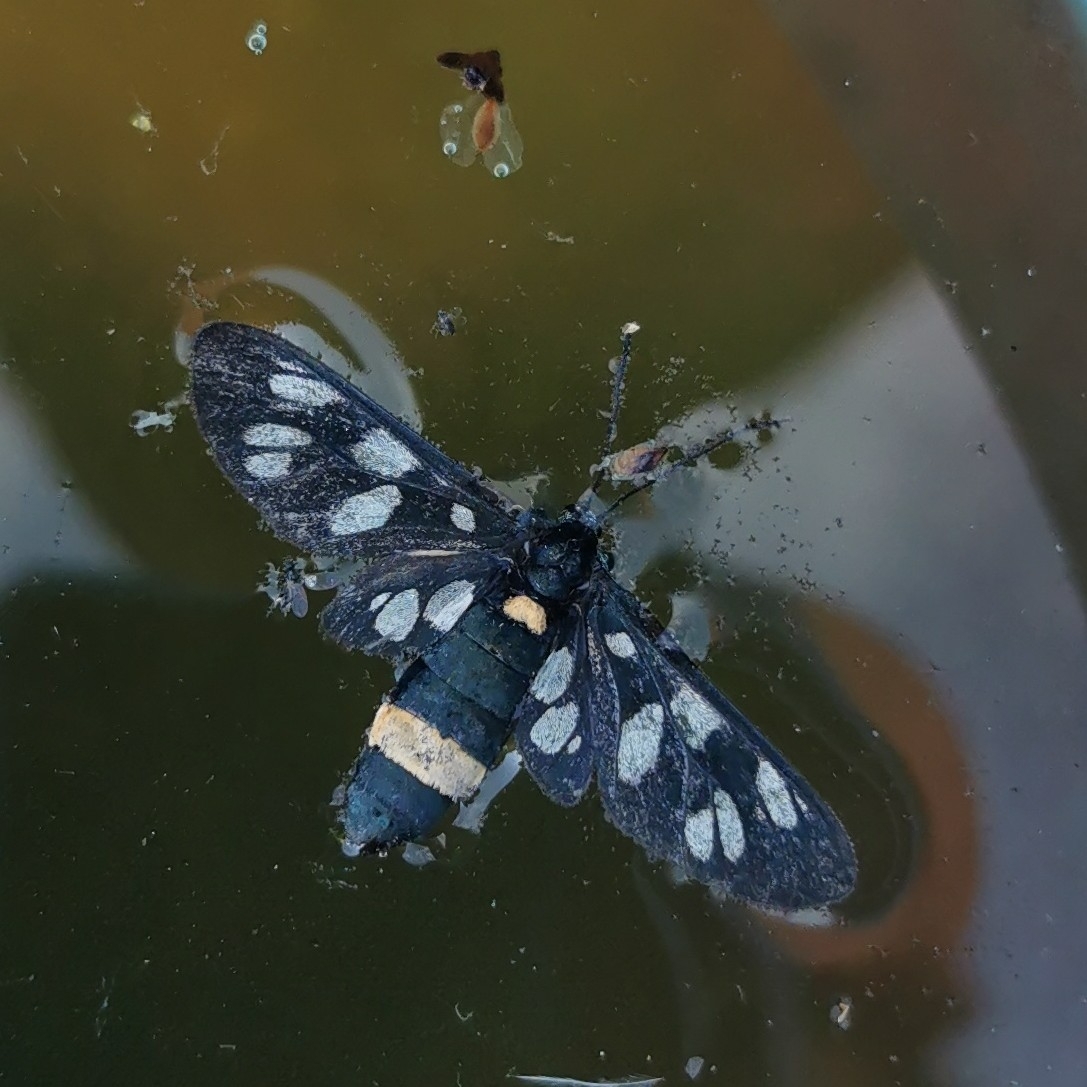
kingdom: Animalia
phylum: Arthropoda
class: Insecta
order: Lepidoptera
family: Erebidae
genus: Amata
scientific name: Amata phegea
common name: Nine-spotted
